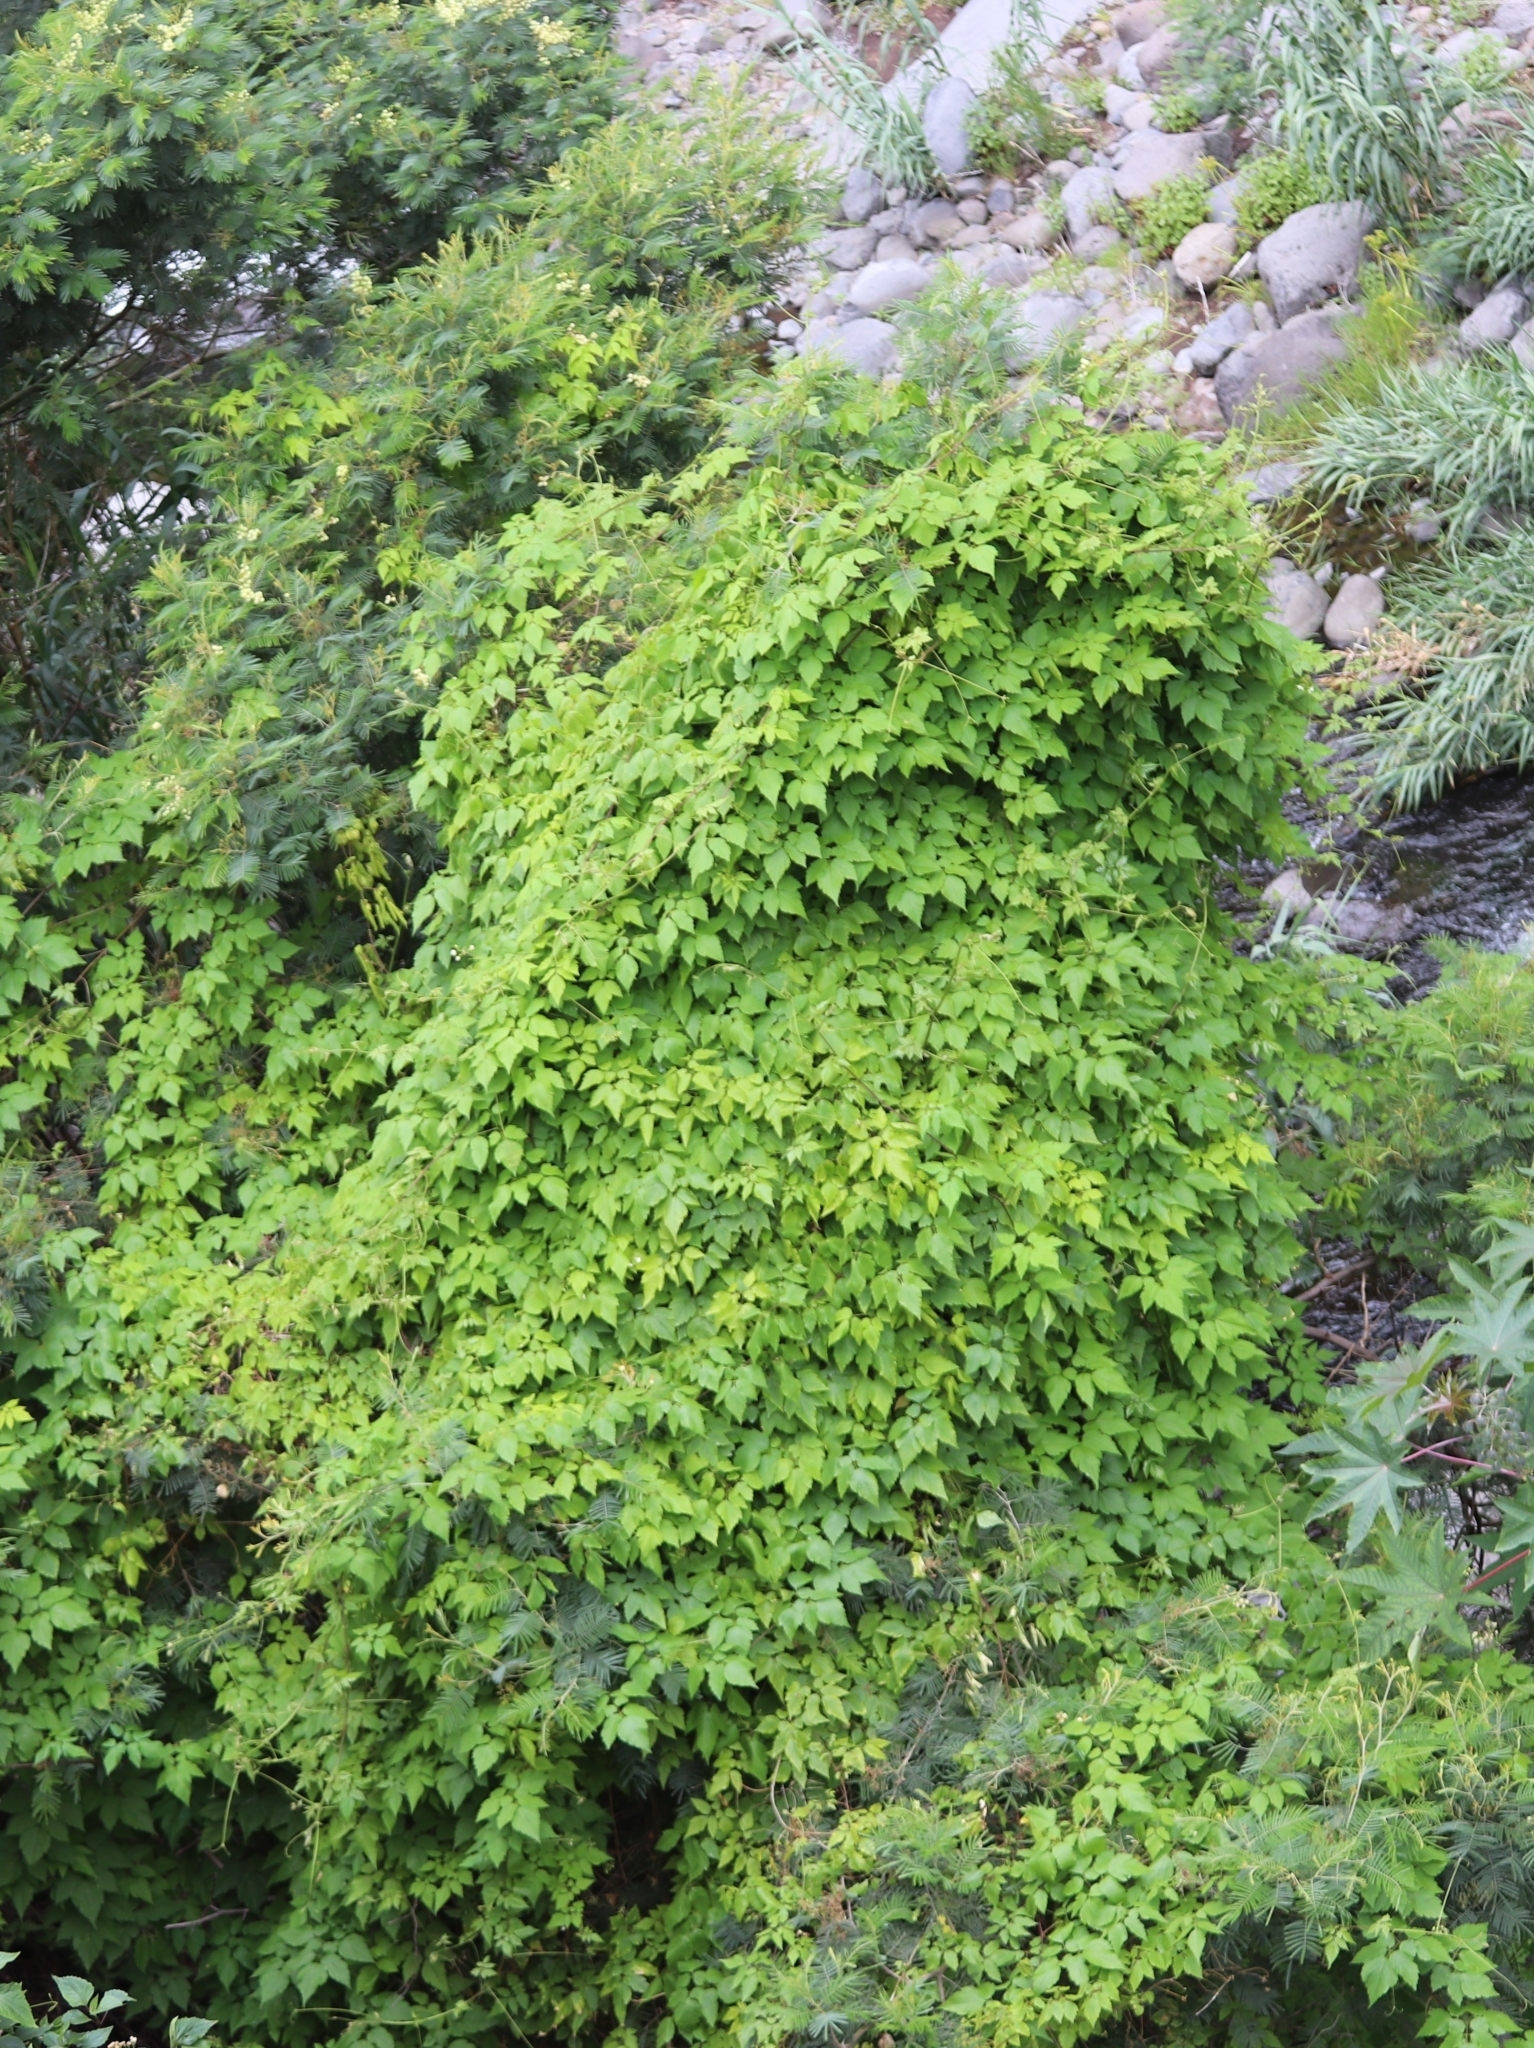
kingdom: Plantae
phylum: Tracheophyta
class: Magnoliopsida
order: Sapindales
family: Sapindaceae
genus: Cardiospermum
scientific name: Cardiospermum grandiflorum
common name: Balloon vine
